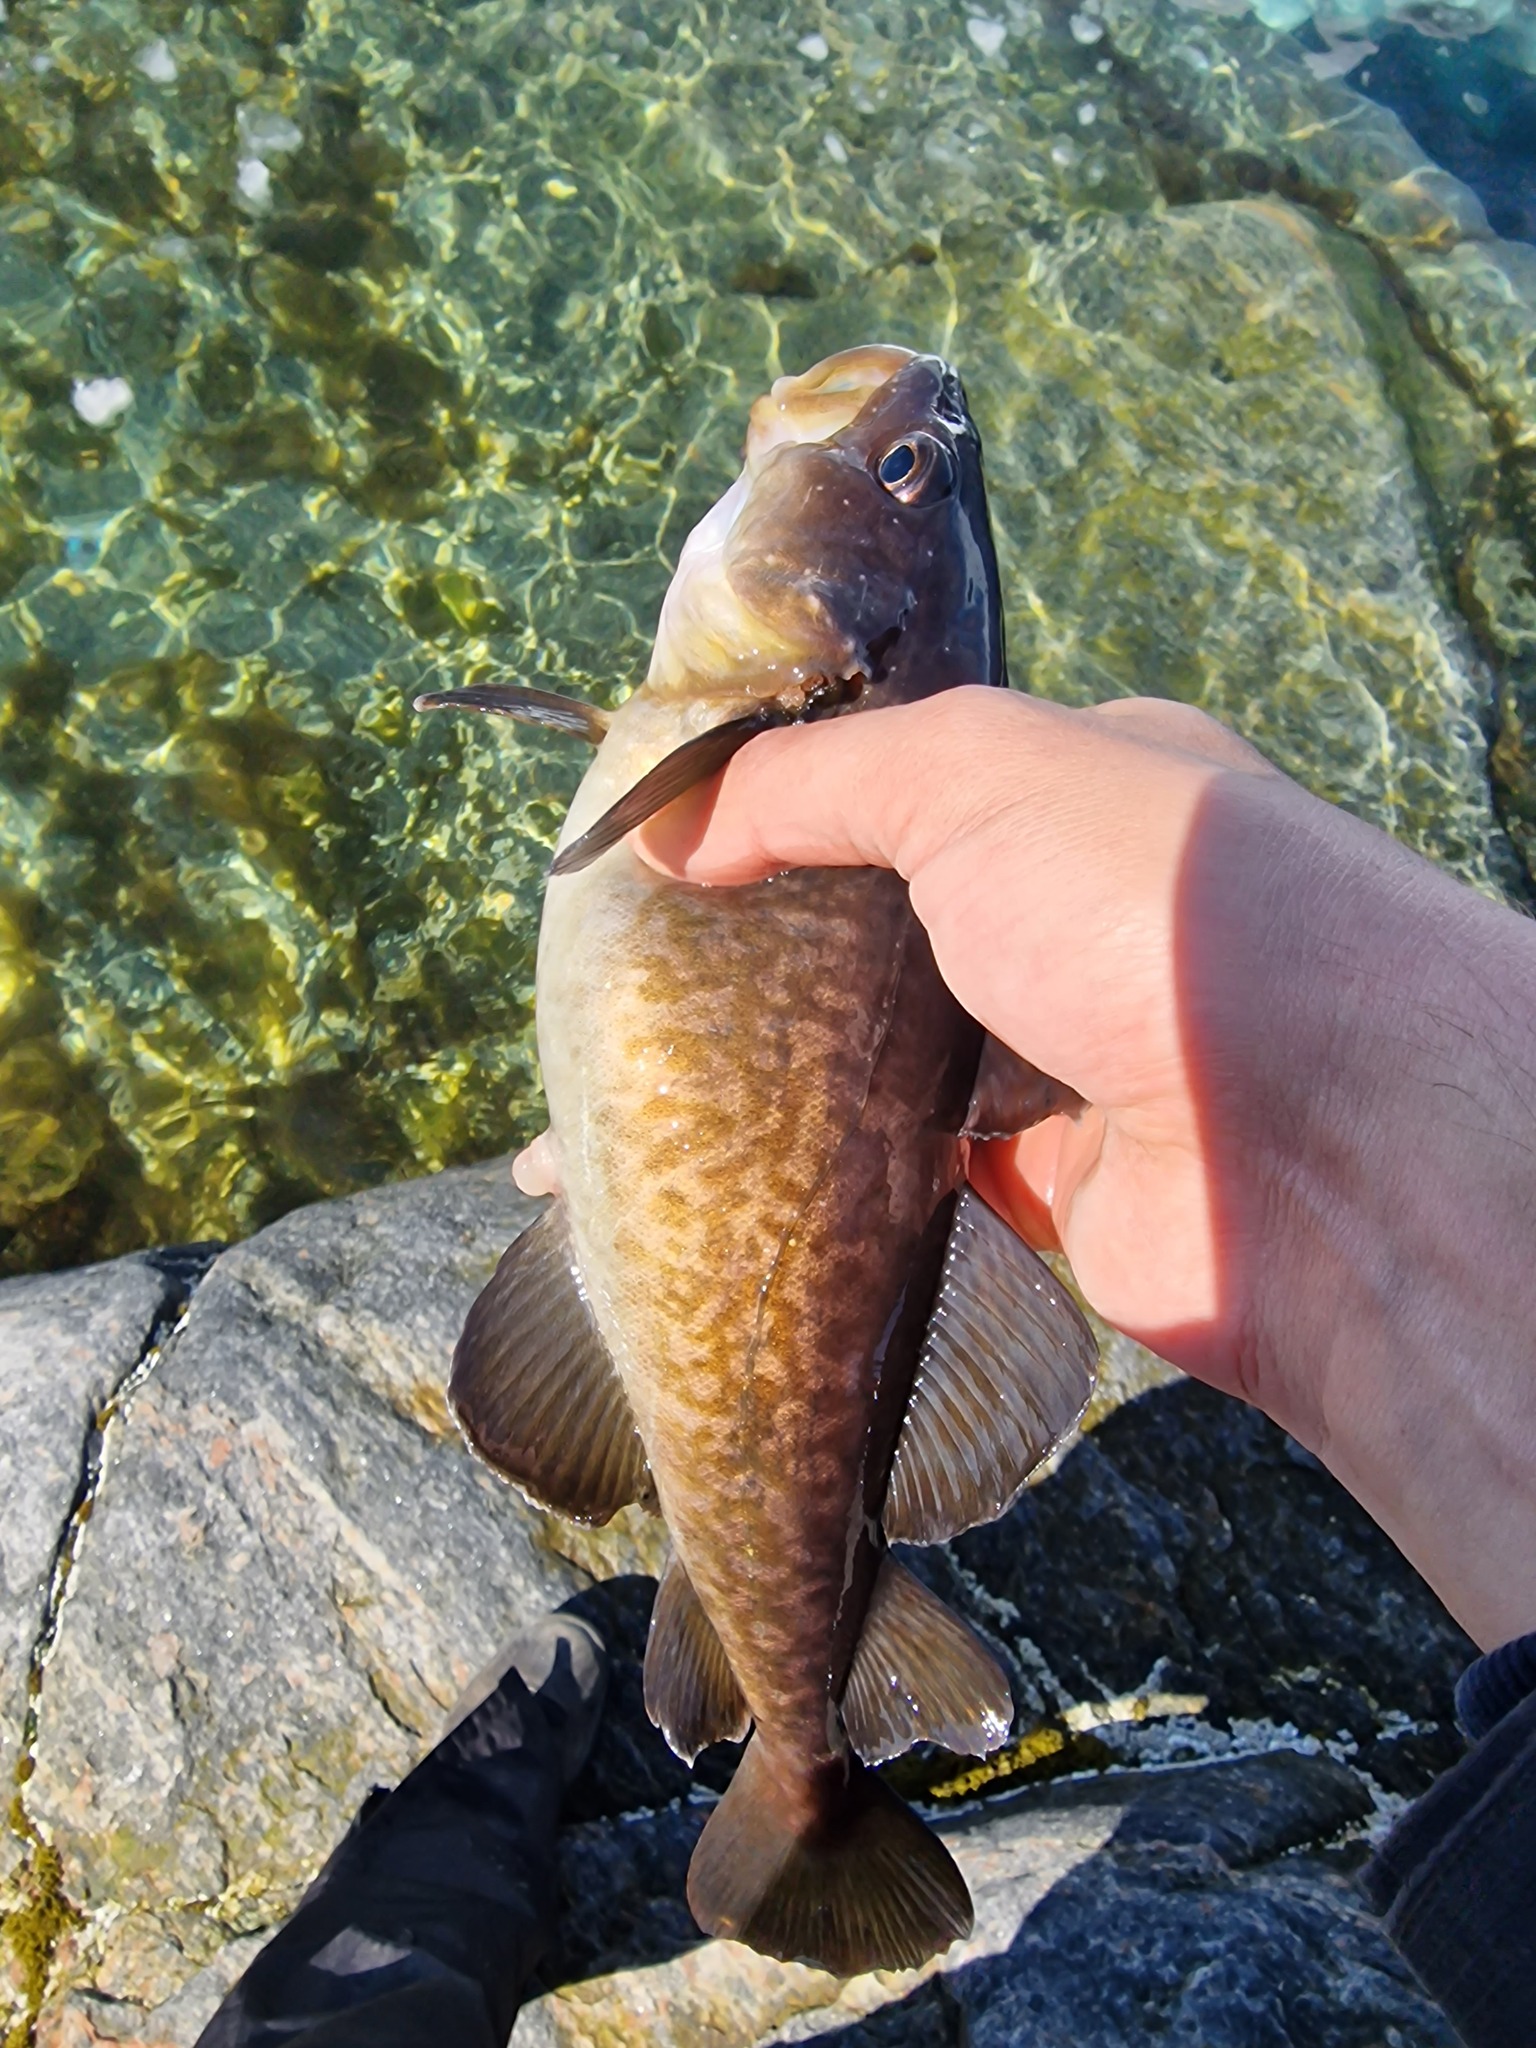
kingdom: Animalia
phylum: Chordata
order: Gadiformes
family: Gadidae
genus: Gadus
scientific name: Gadus macrocephalus
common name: Pacific cod
